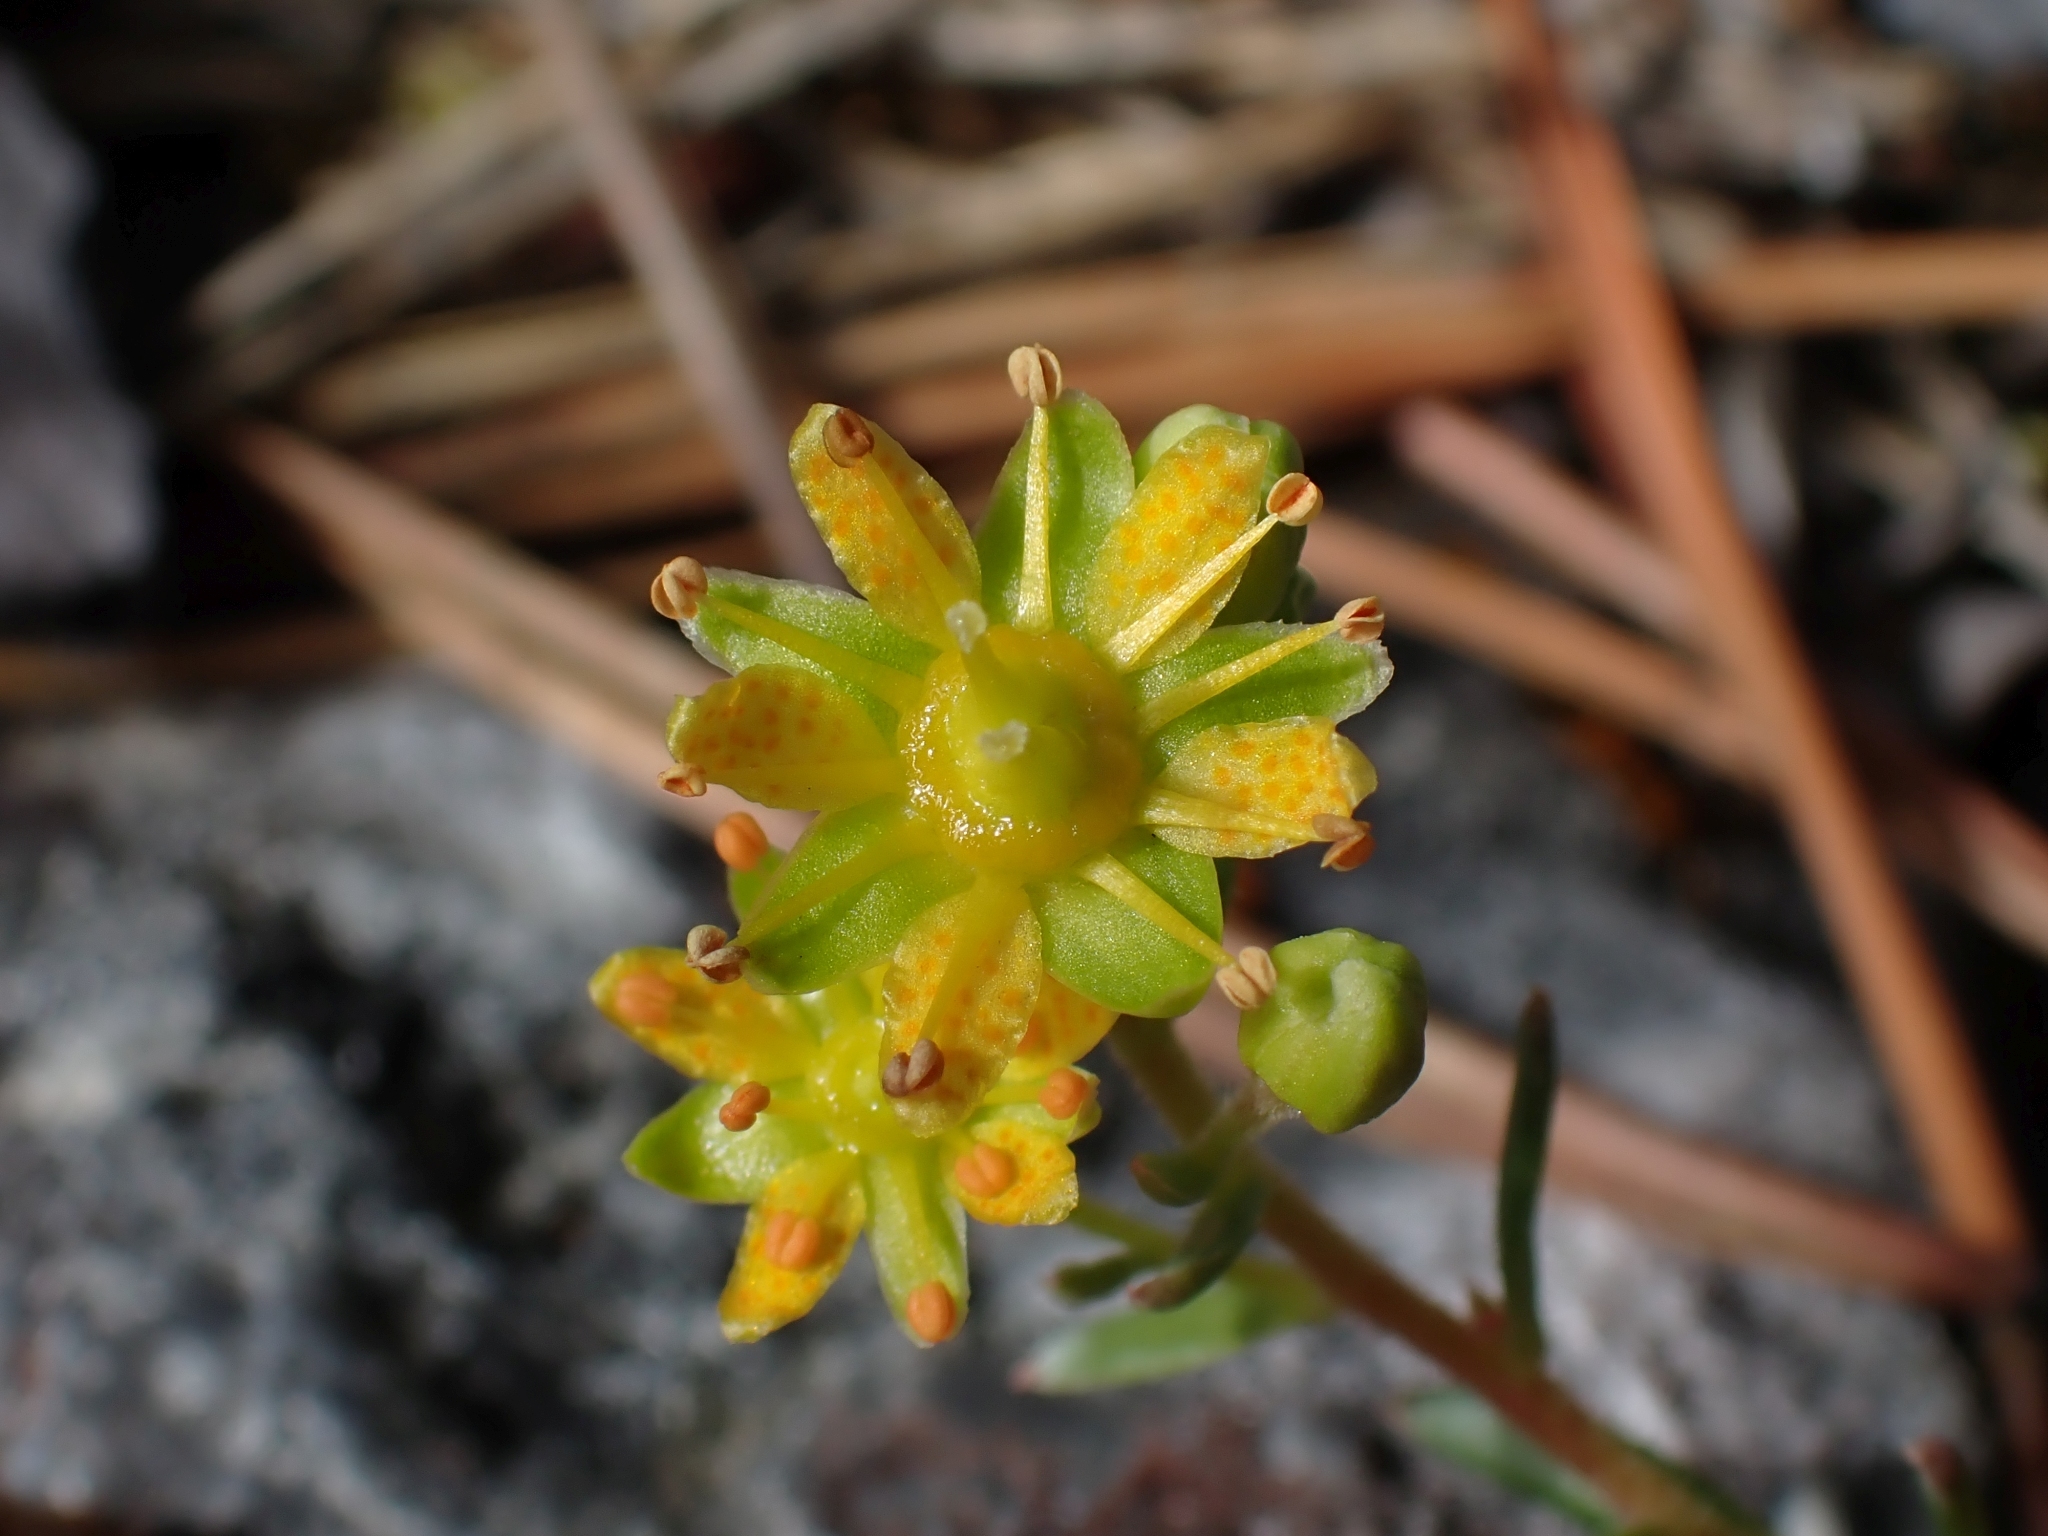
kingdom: Plantae
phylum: Tracheophyta
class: Magnoliopsida
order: Saxifragales
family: Saxifragaceae
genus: Saxifraga
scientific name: Saxifraga aizoides
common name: Yellow mountain saxifrage
